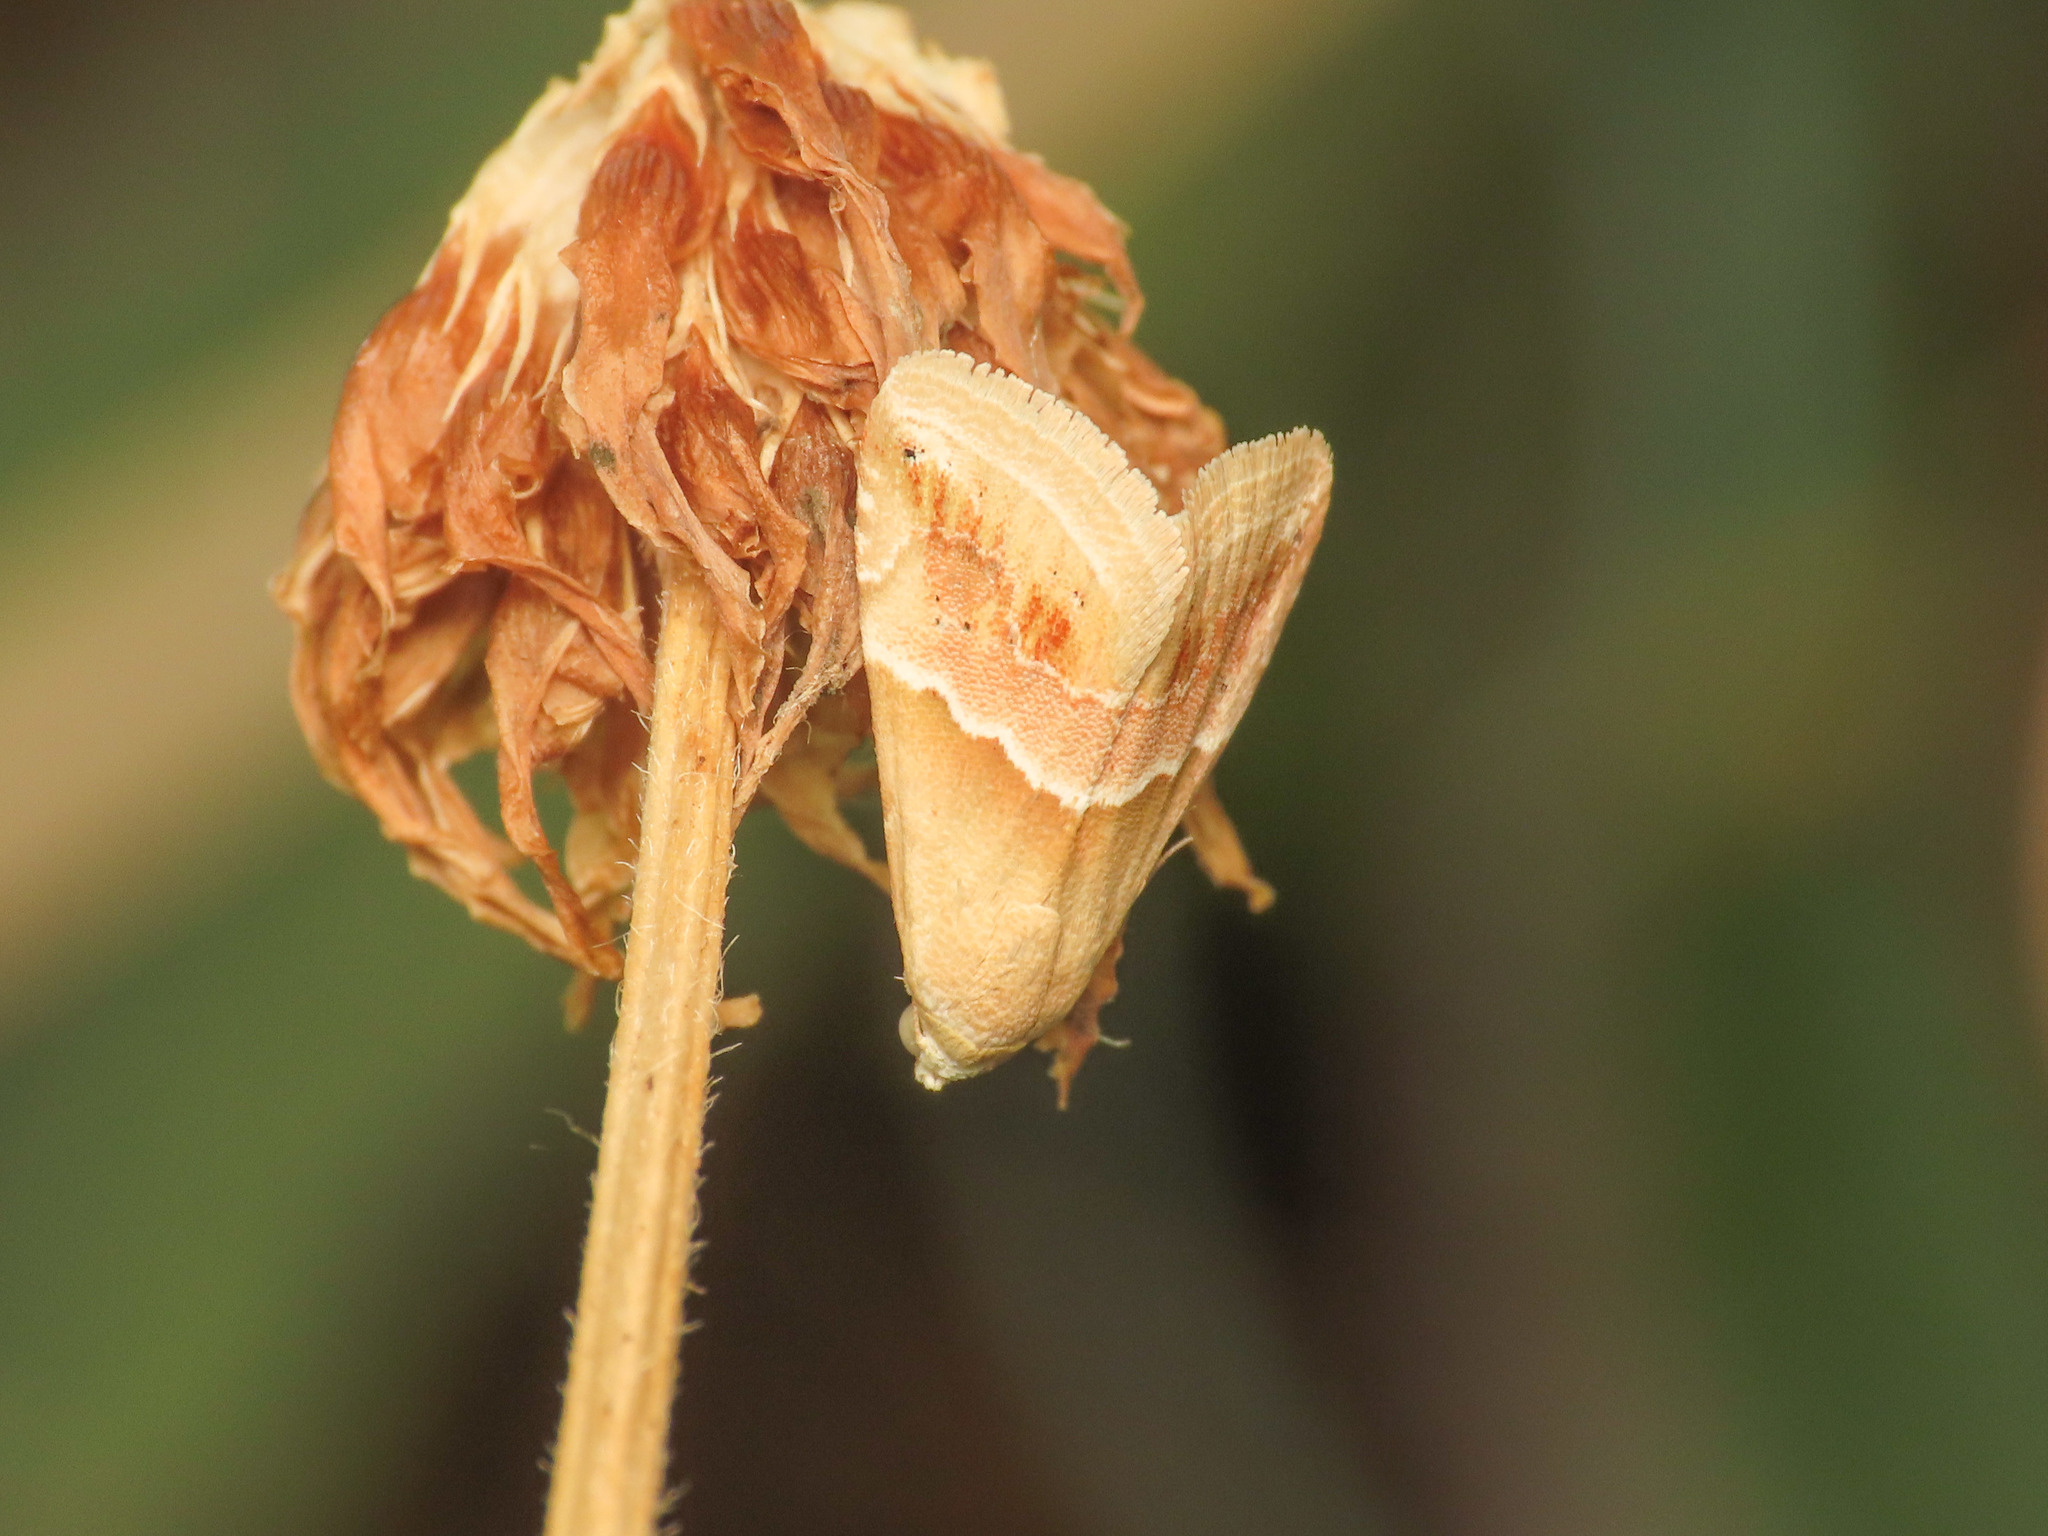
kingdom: Animalia
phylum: Arthropoda
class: Insecta
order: Lepidoptera
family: Noctuidae
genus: Eublemma
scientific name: Eublemma parva
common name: Small marbled
